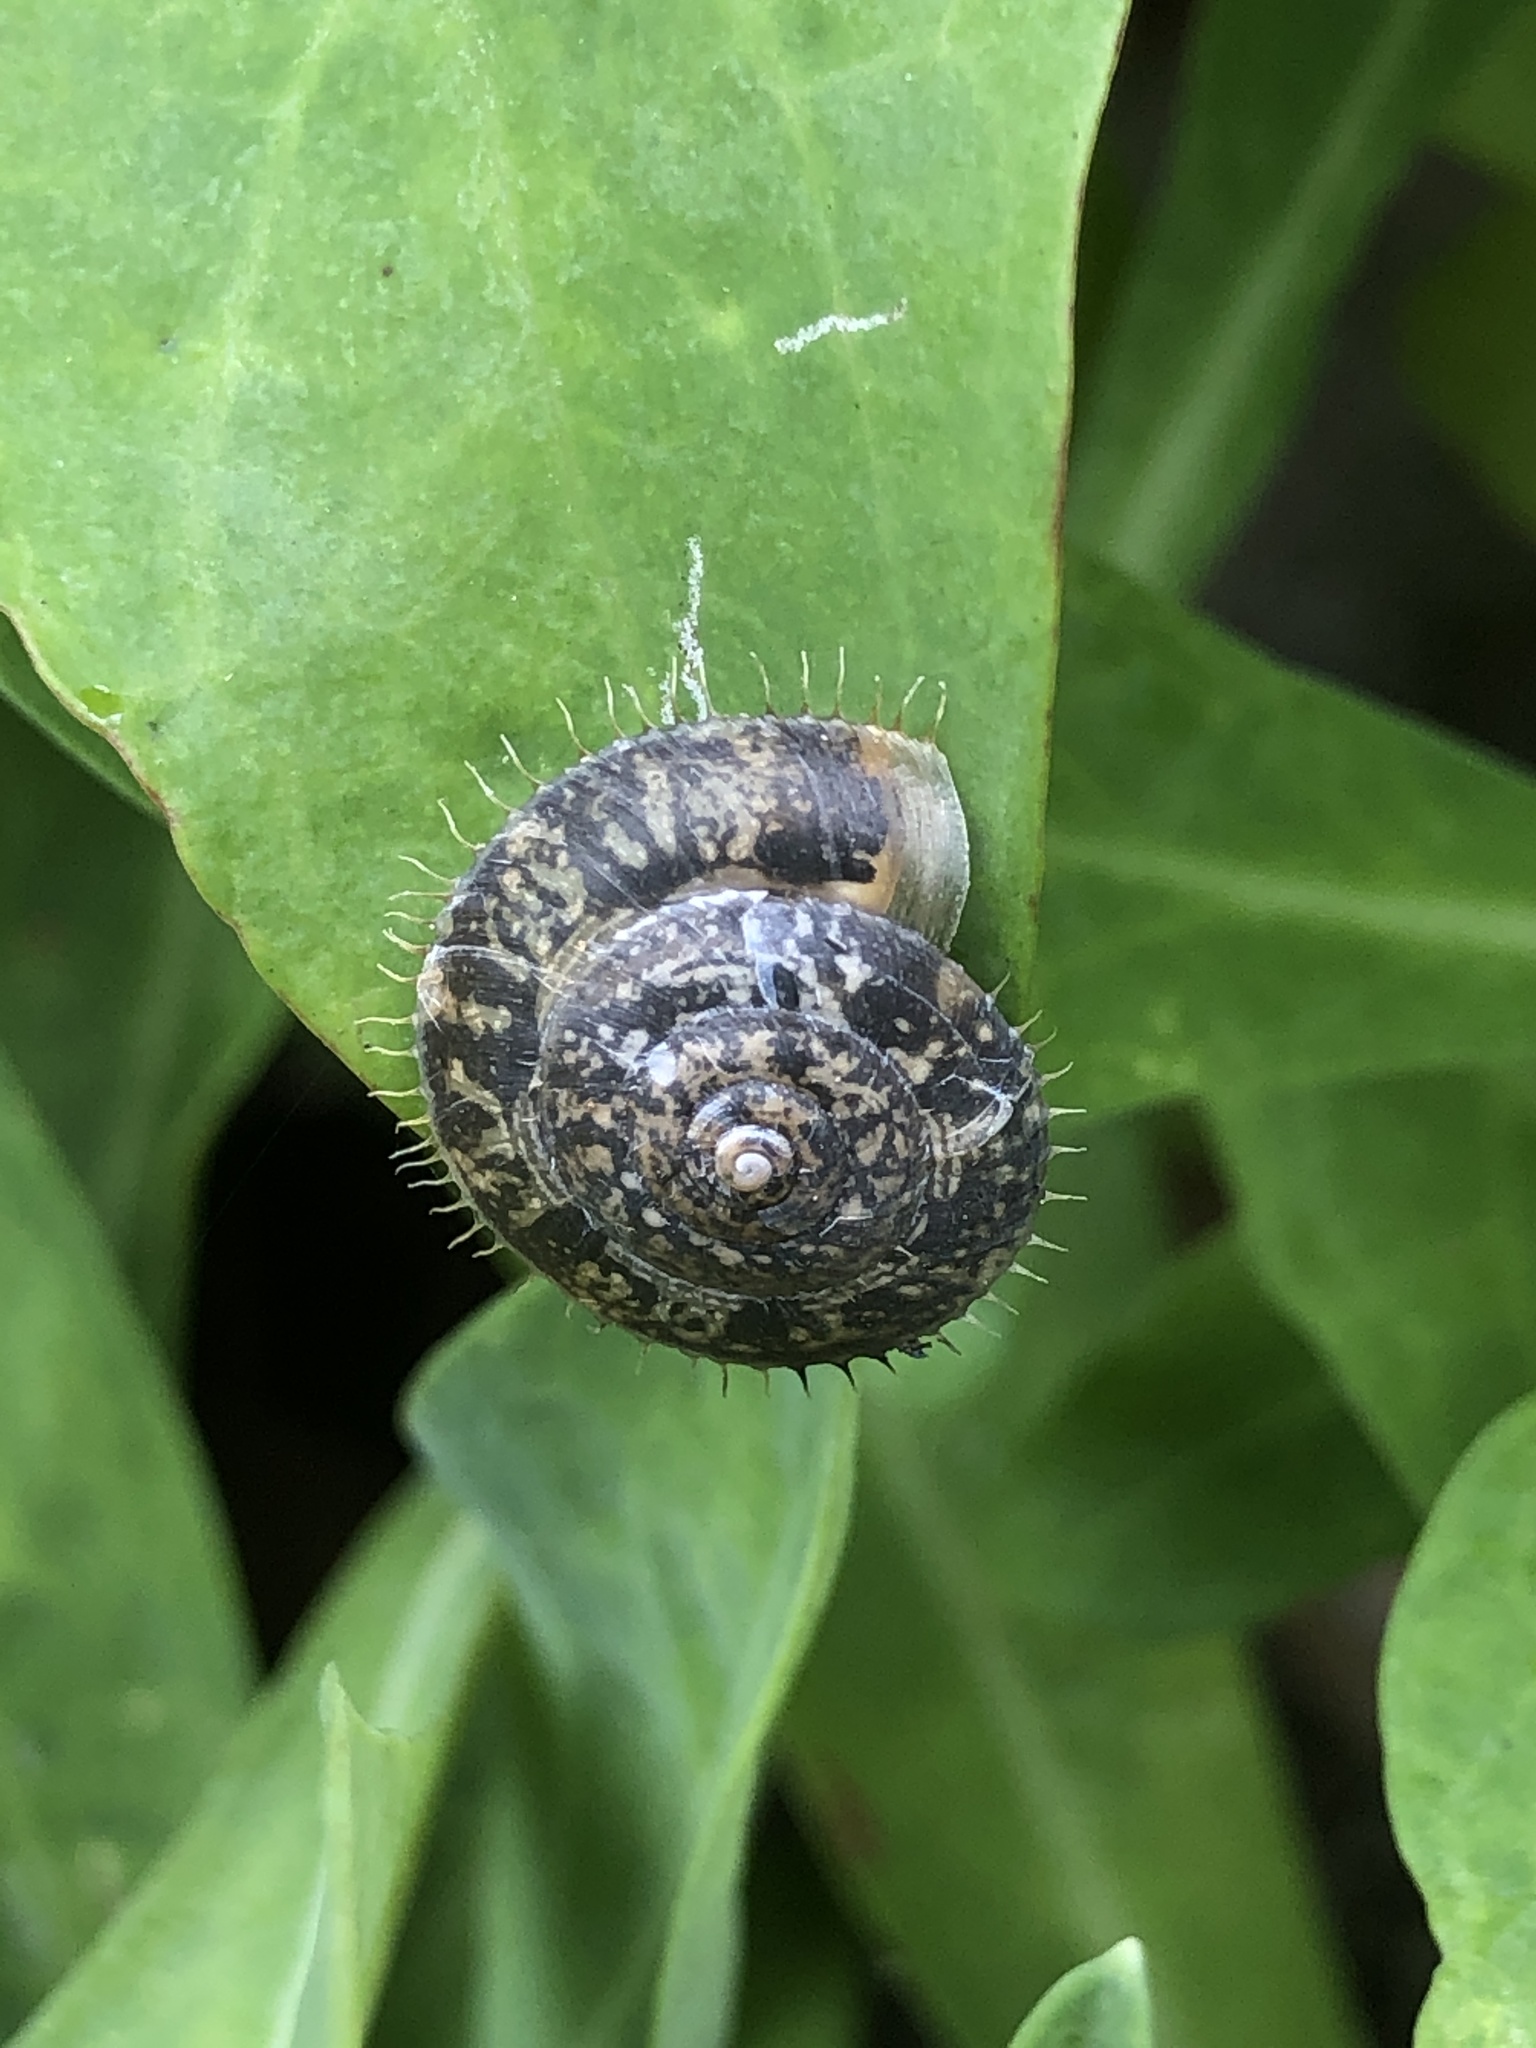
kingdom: Animalia
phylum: Mollusca
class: Gastropoda
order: Stylommatophora
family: Camaenidae
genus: Plectotropis
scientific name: Plectotropis elegantissima
